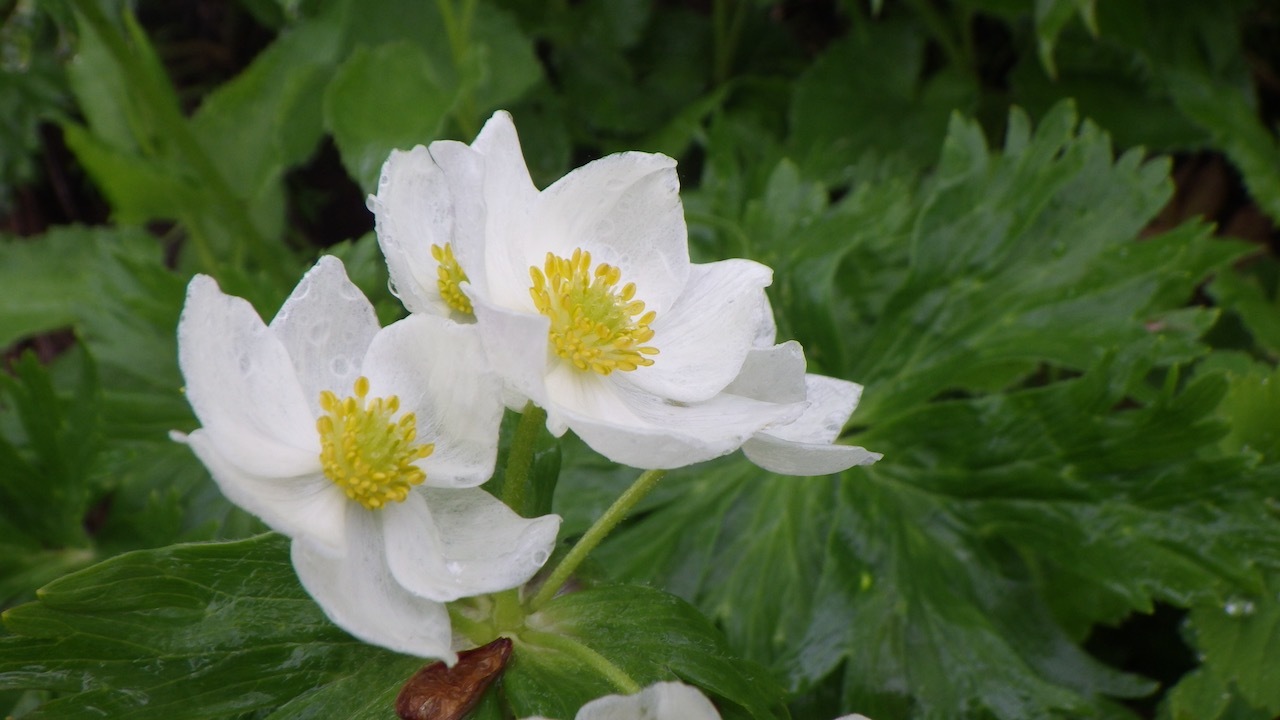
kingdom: Plantae
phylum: Tracheophyta
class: Magnoliopsida
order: Ranunculales
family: Ranunculaceae
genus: Anemonastrum
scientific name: Anemonastrum narcissiflorum
